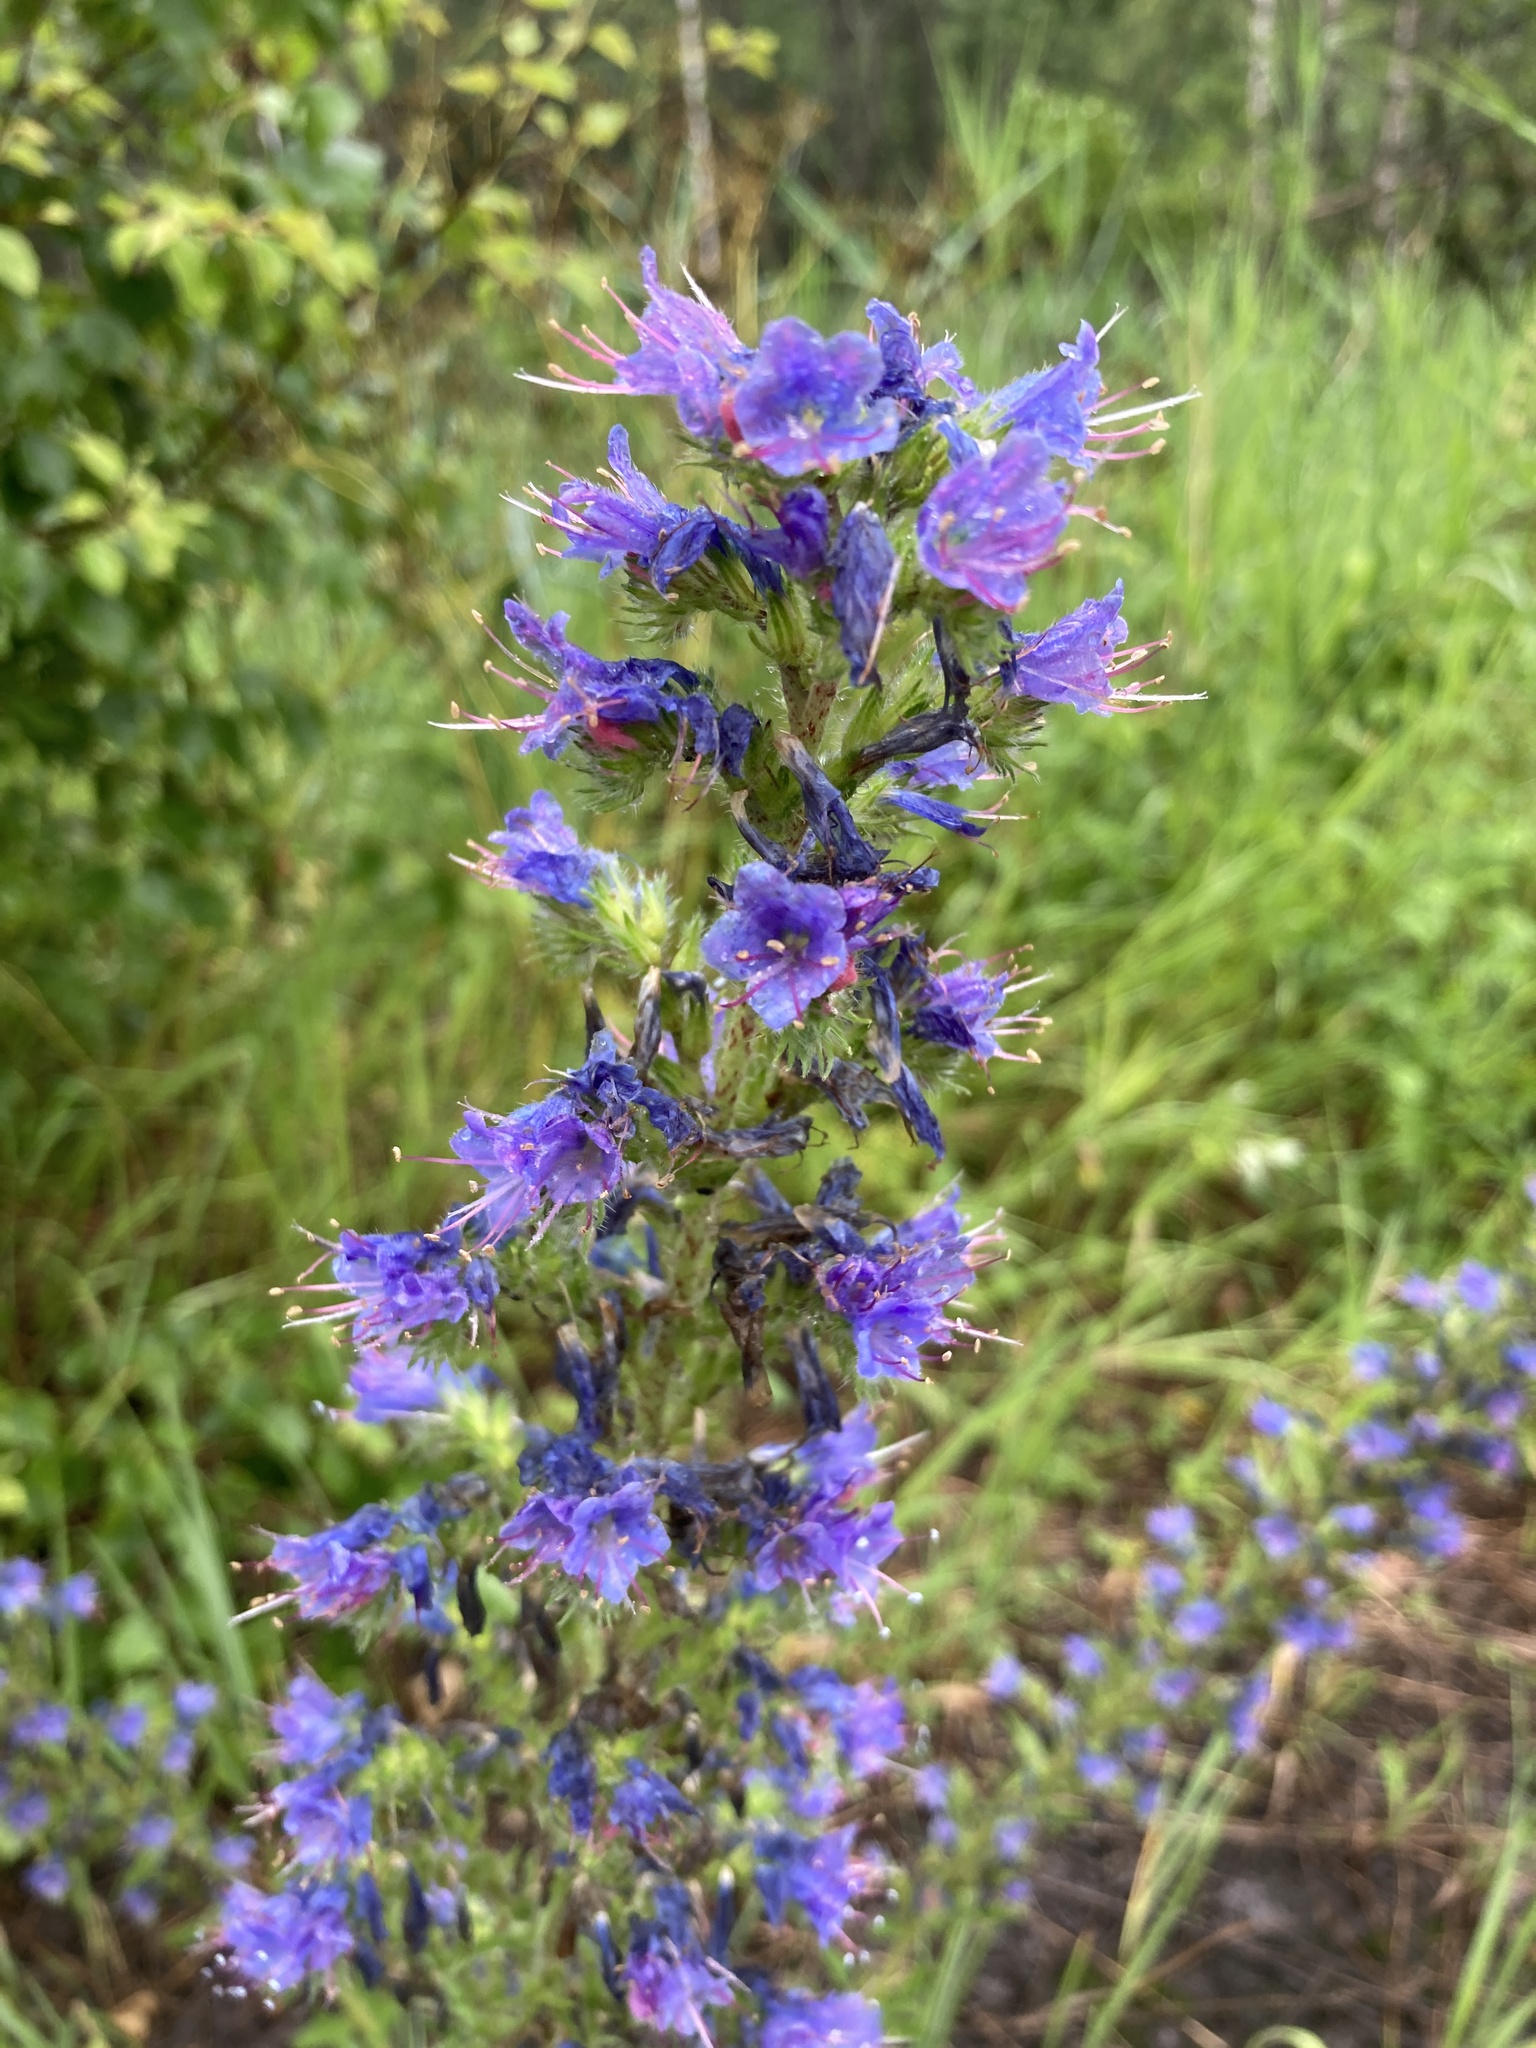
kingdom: Plantae
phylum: Tracheophyta
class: Magnoliopsida
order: Boraginales
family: Boraginaceae
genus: Echium
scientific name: Echium vulgare
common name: Common viper's bugloss
